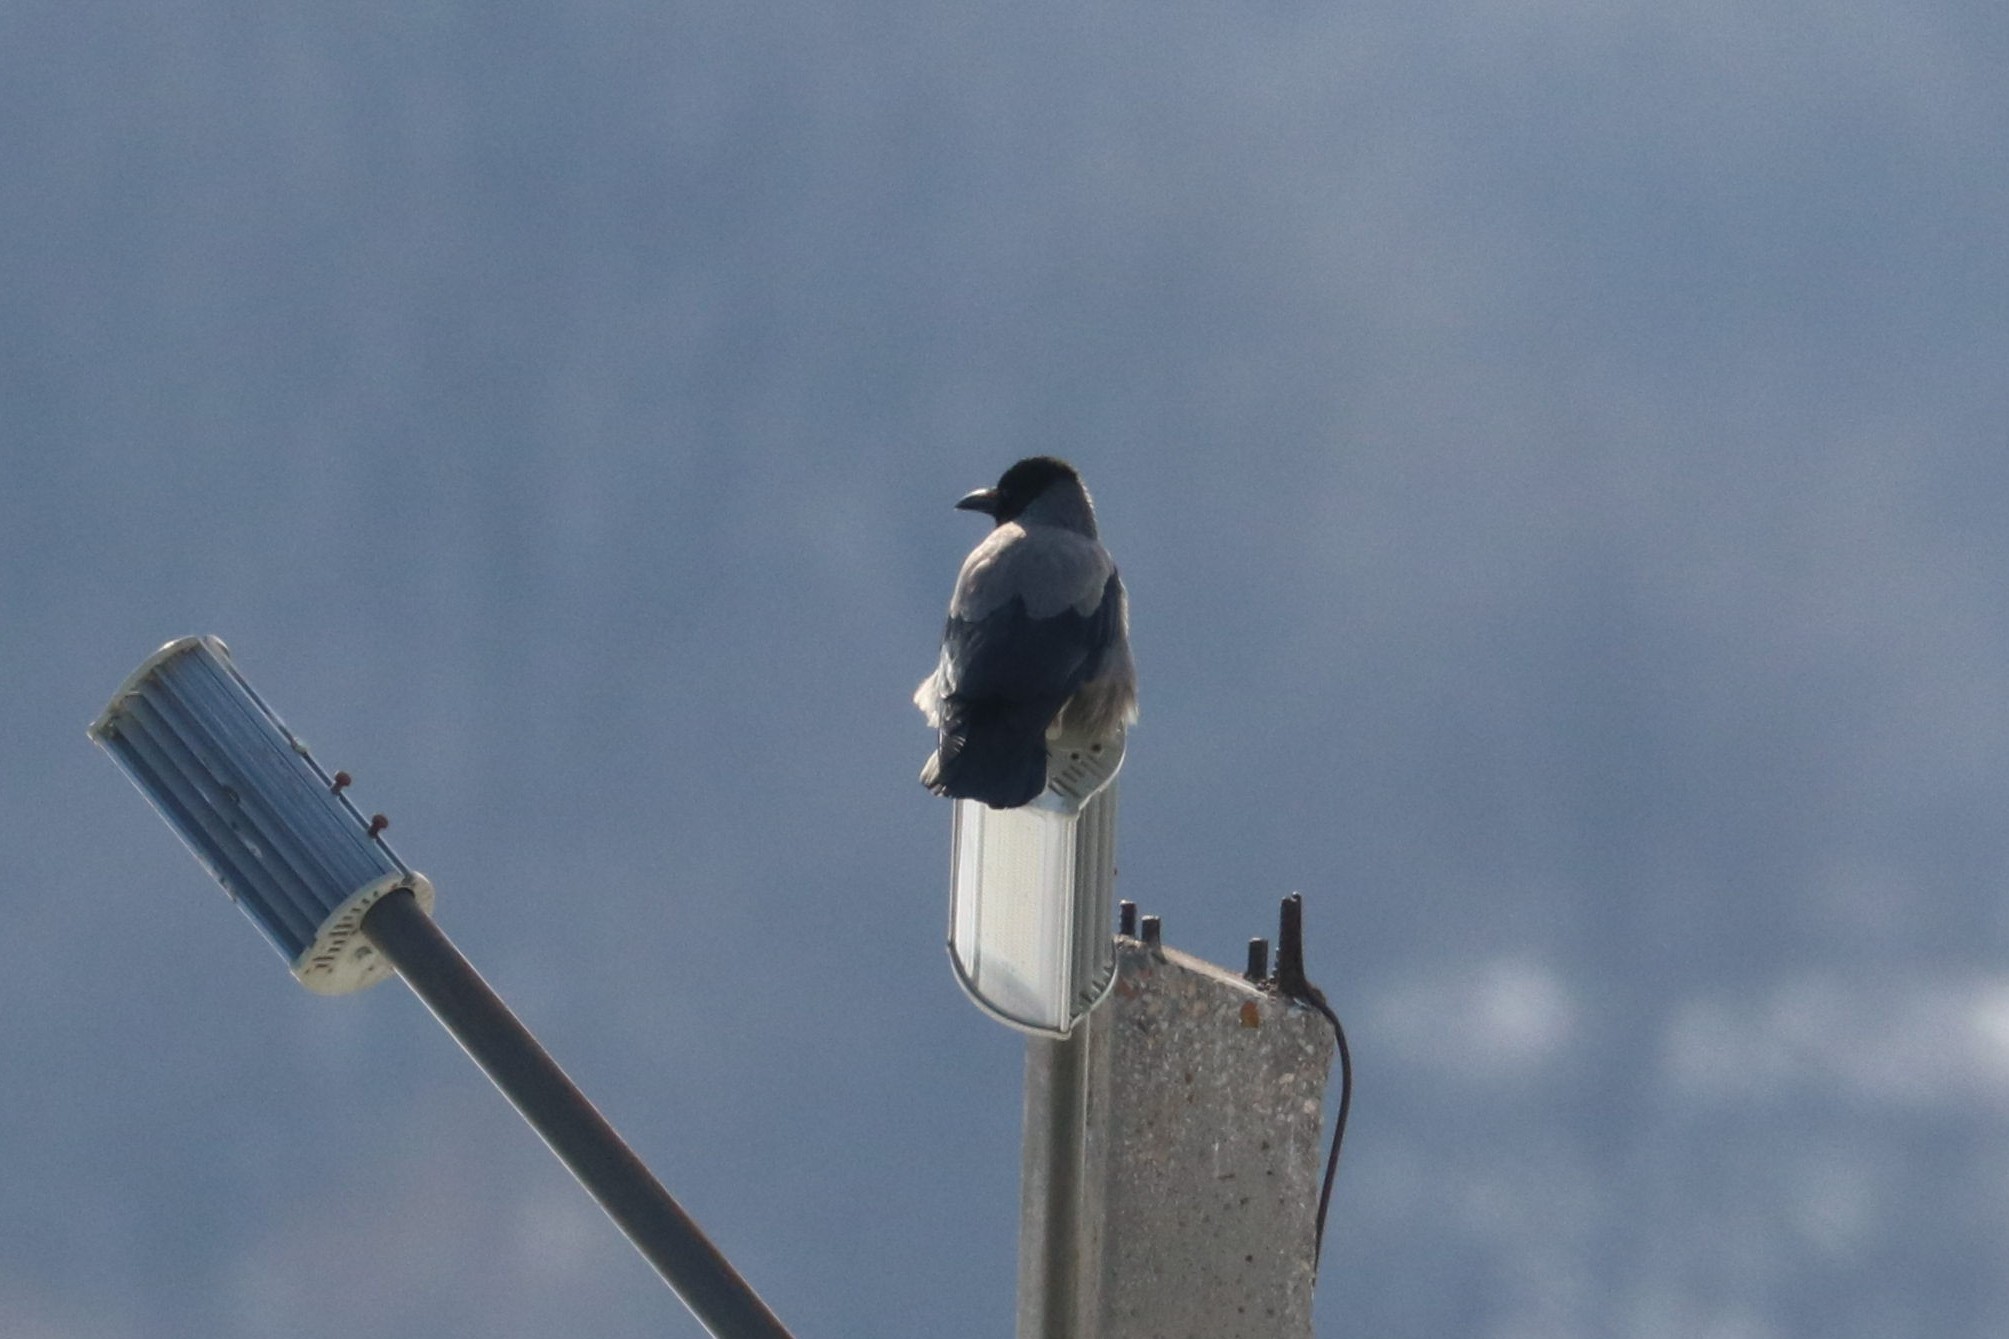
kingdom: Animalia
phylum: Chordata
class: Aves
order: Passeriformes
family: Corvidae
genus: Corvus
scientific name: Corvus cornix
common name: Hooded crow
